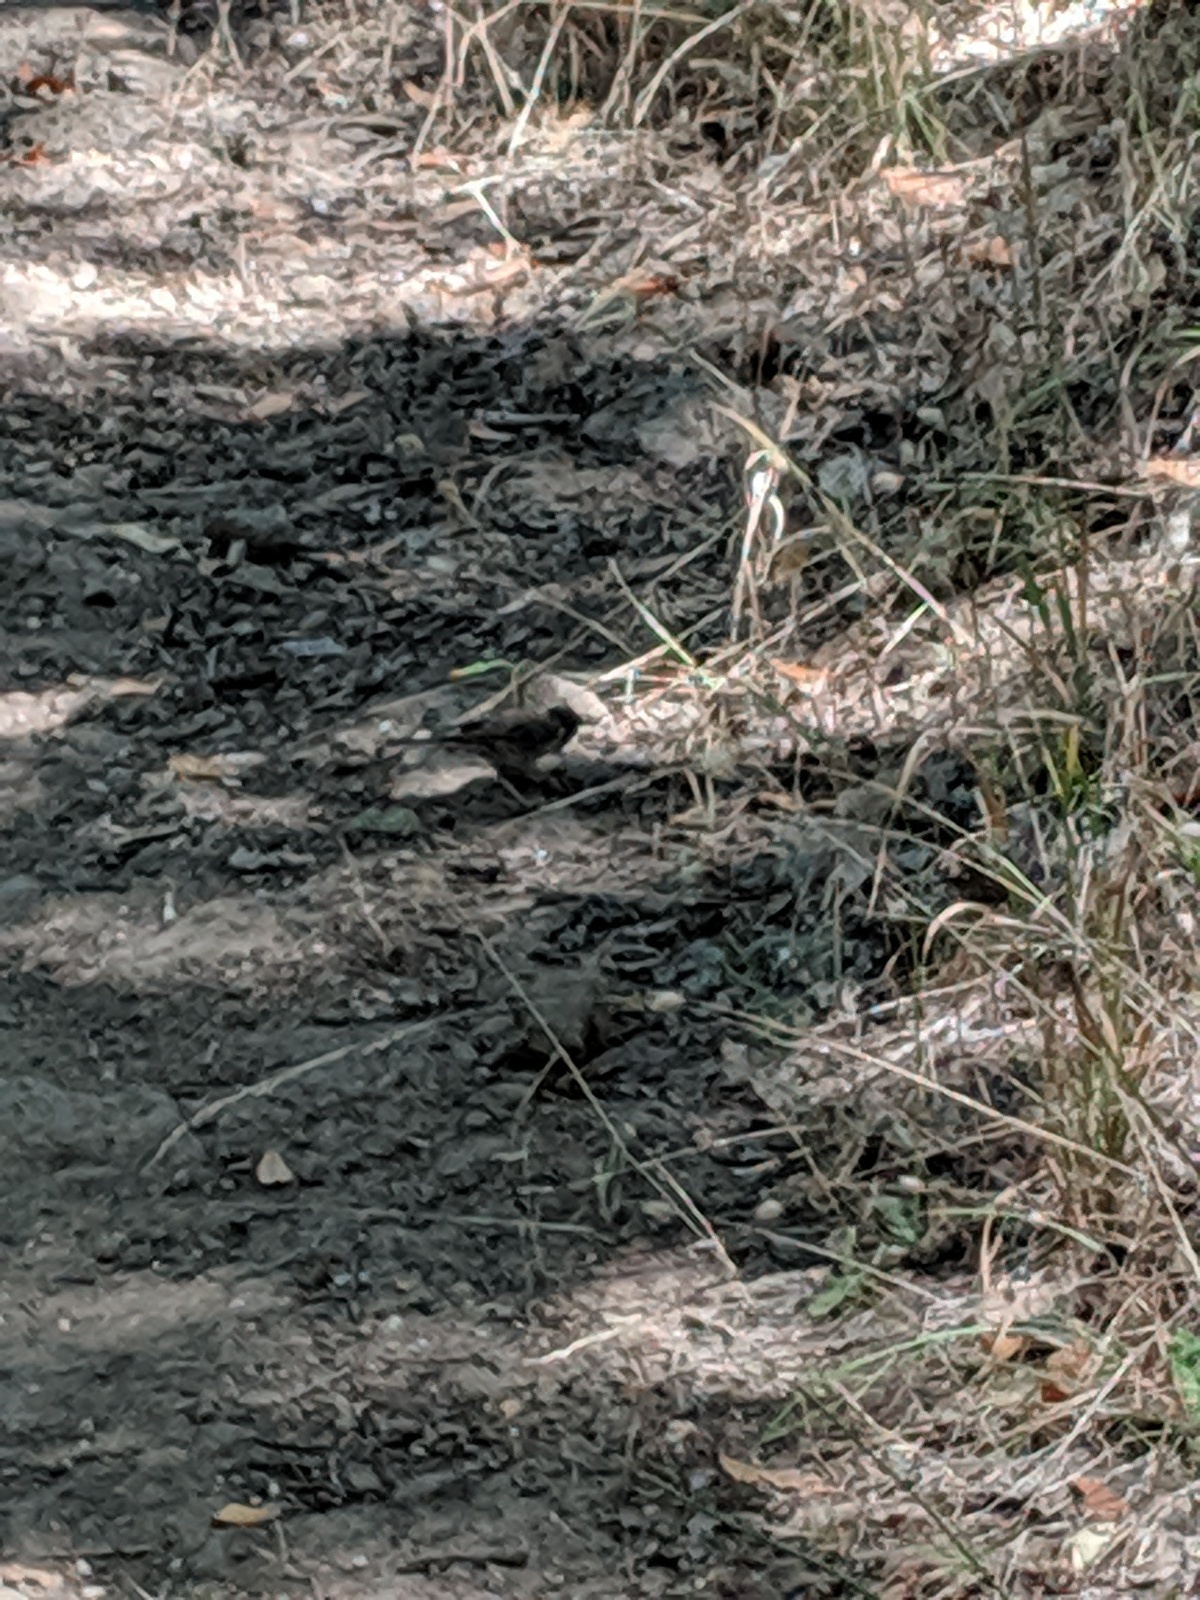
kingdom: Animalia
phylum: Chordata
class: Aves
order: Passeriformes
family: Passerellidae
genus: Junco
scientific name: Junco hyemalis
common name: Dark-eyed junco
